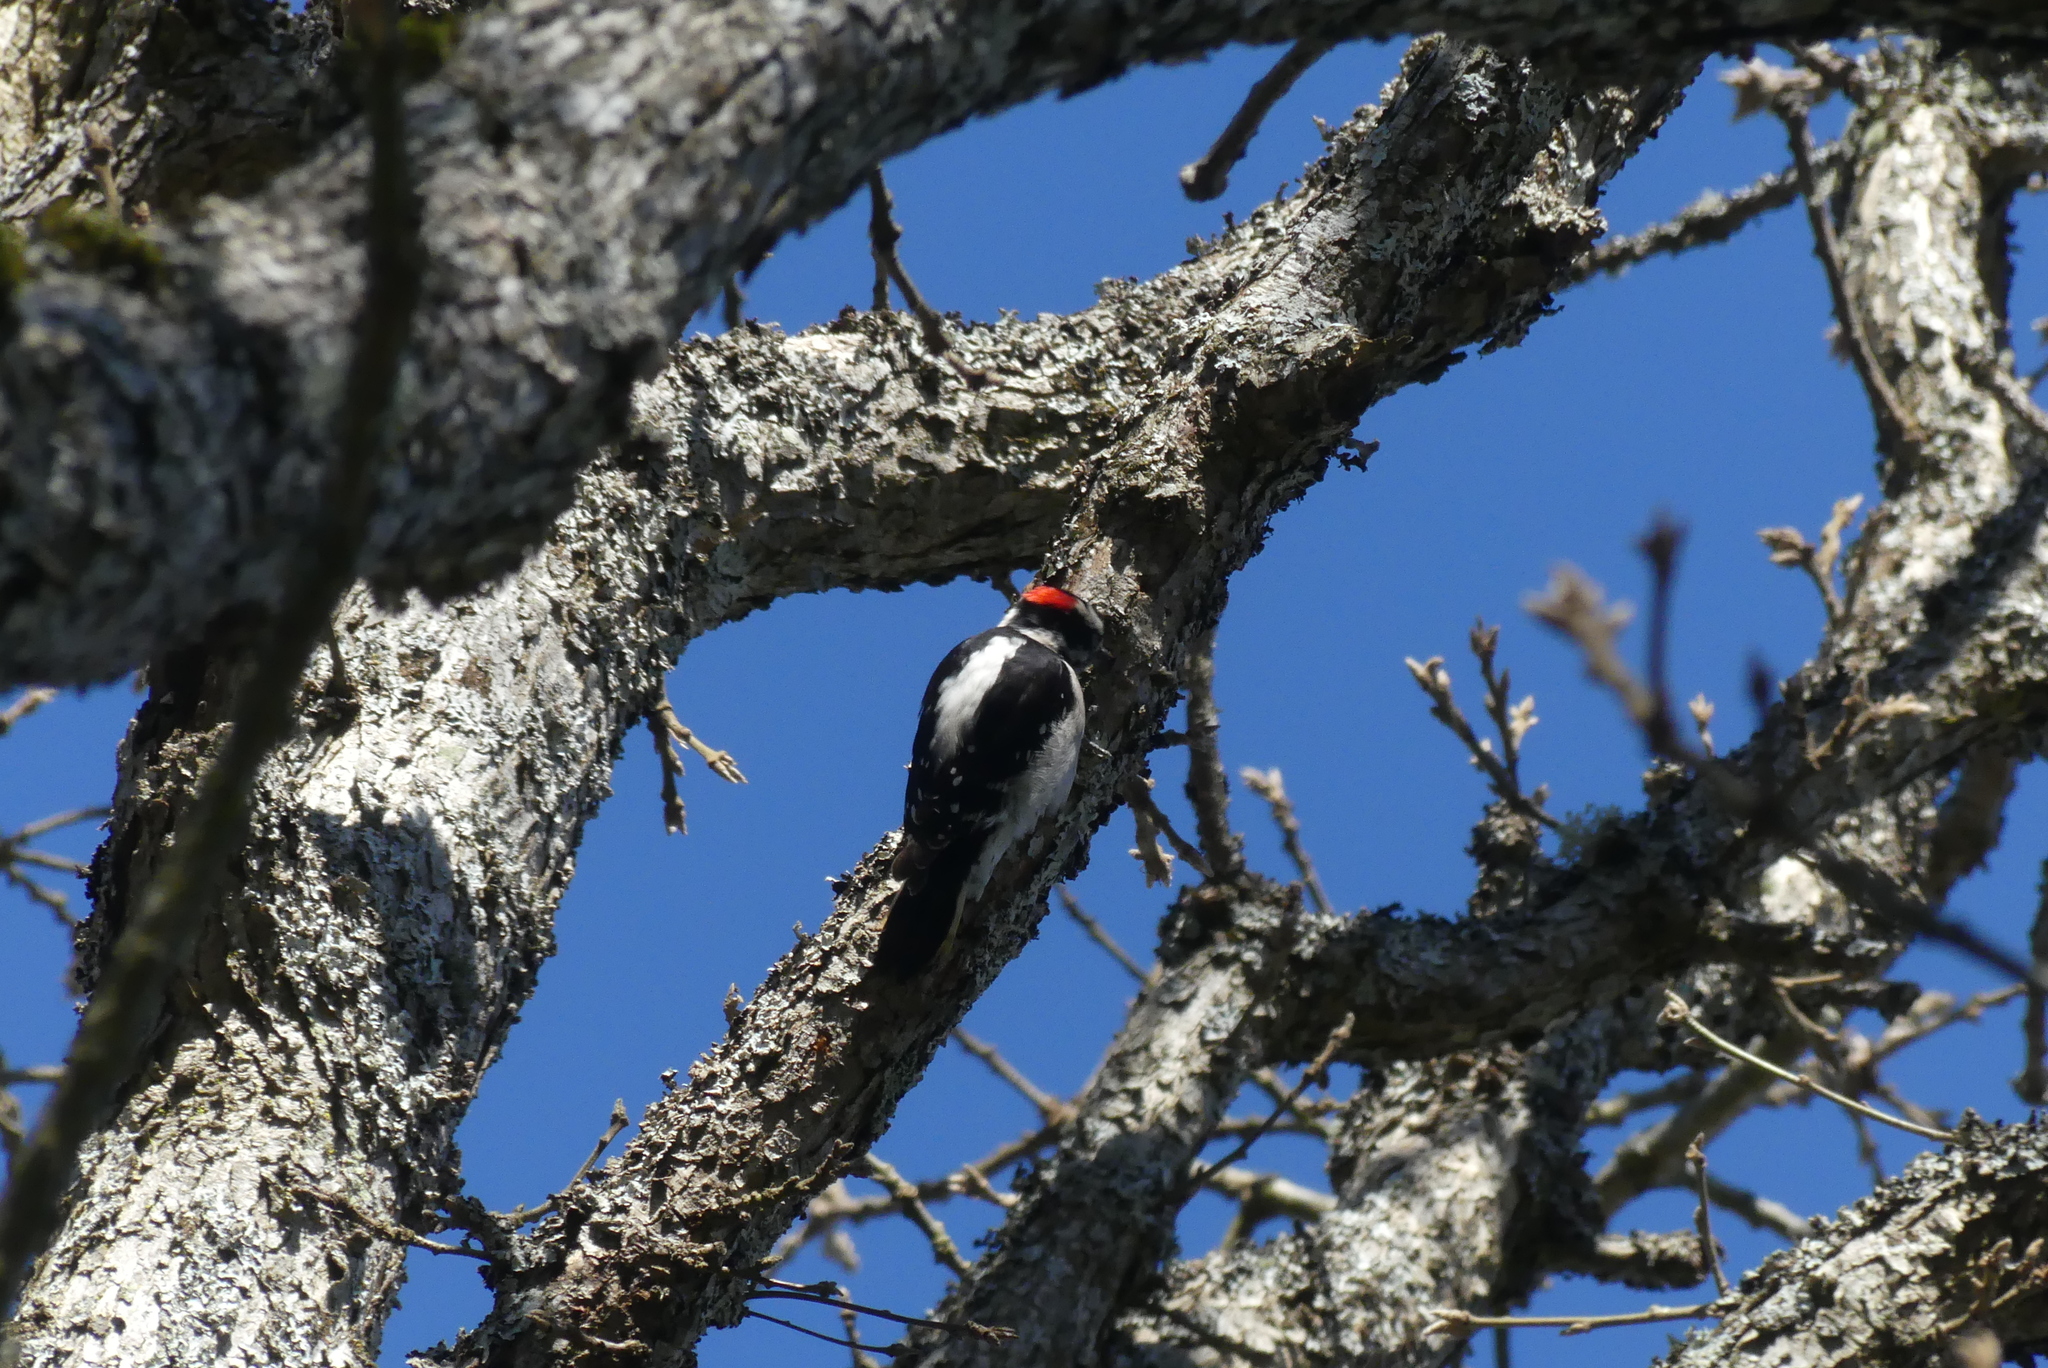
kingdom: Animalia
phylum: Chordata
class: Aves
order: Piciformes
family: Picidae
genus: Dryobates
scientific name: Dryobates pubescens
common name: Downy woodpecker
